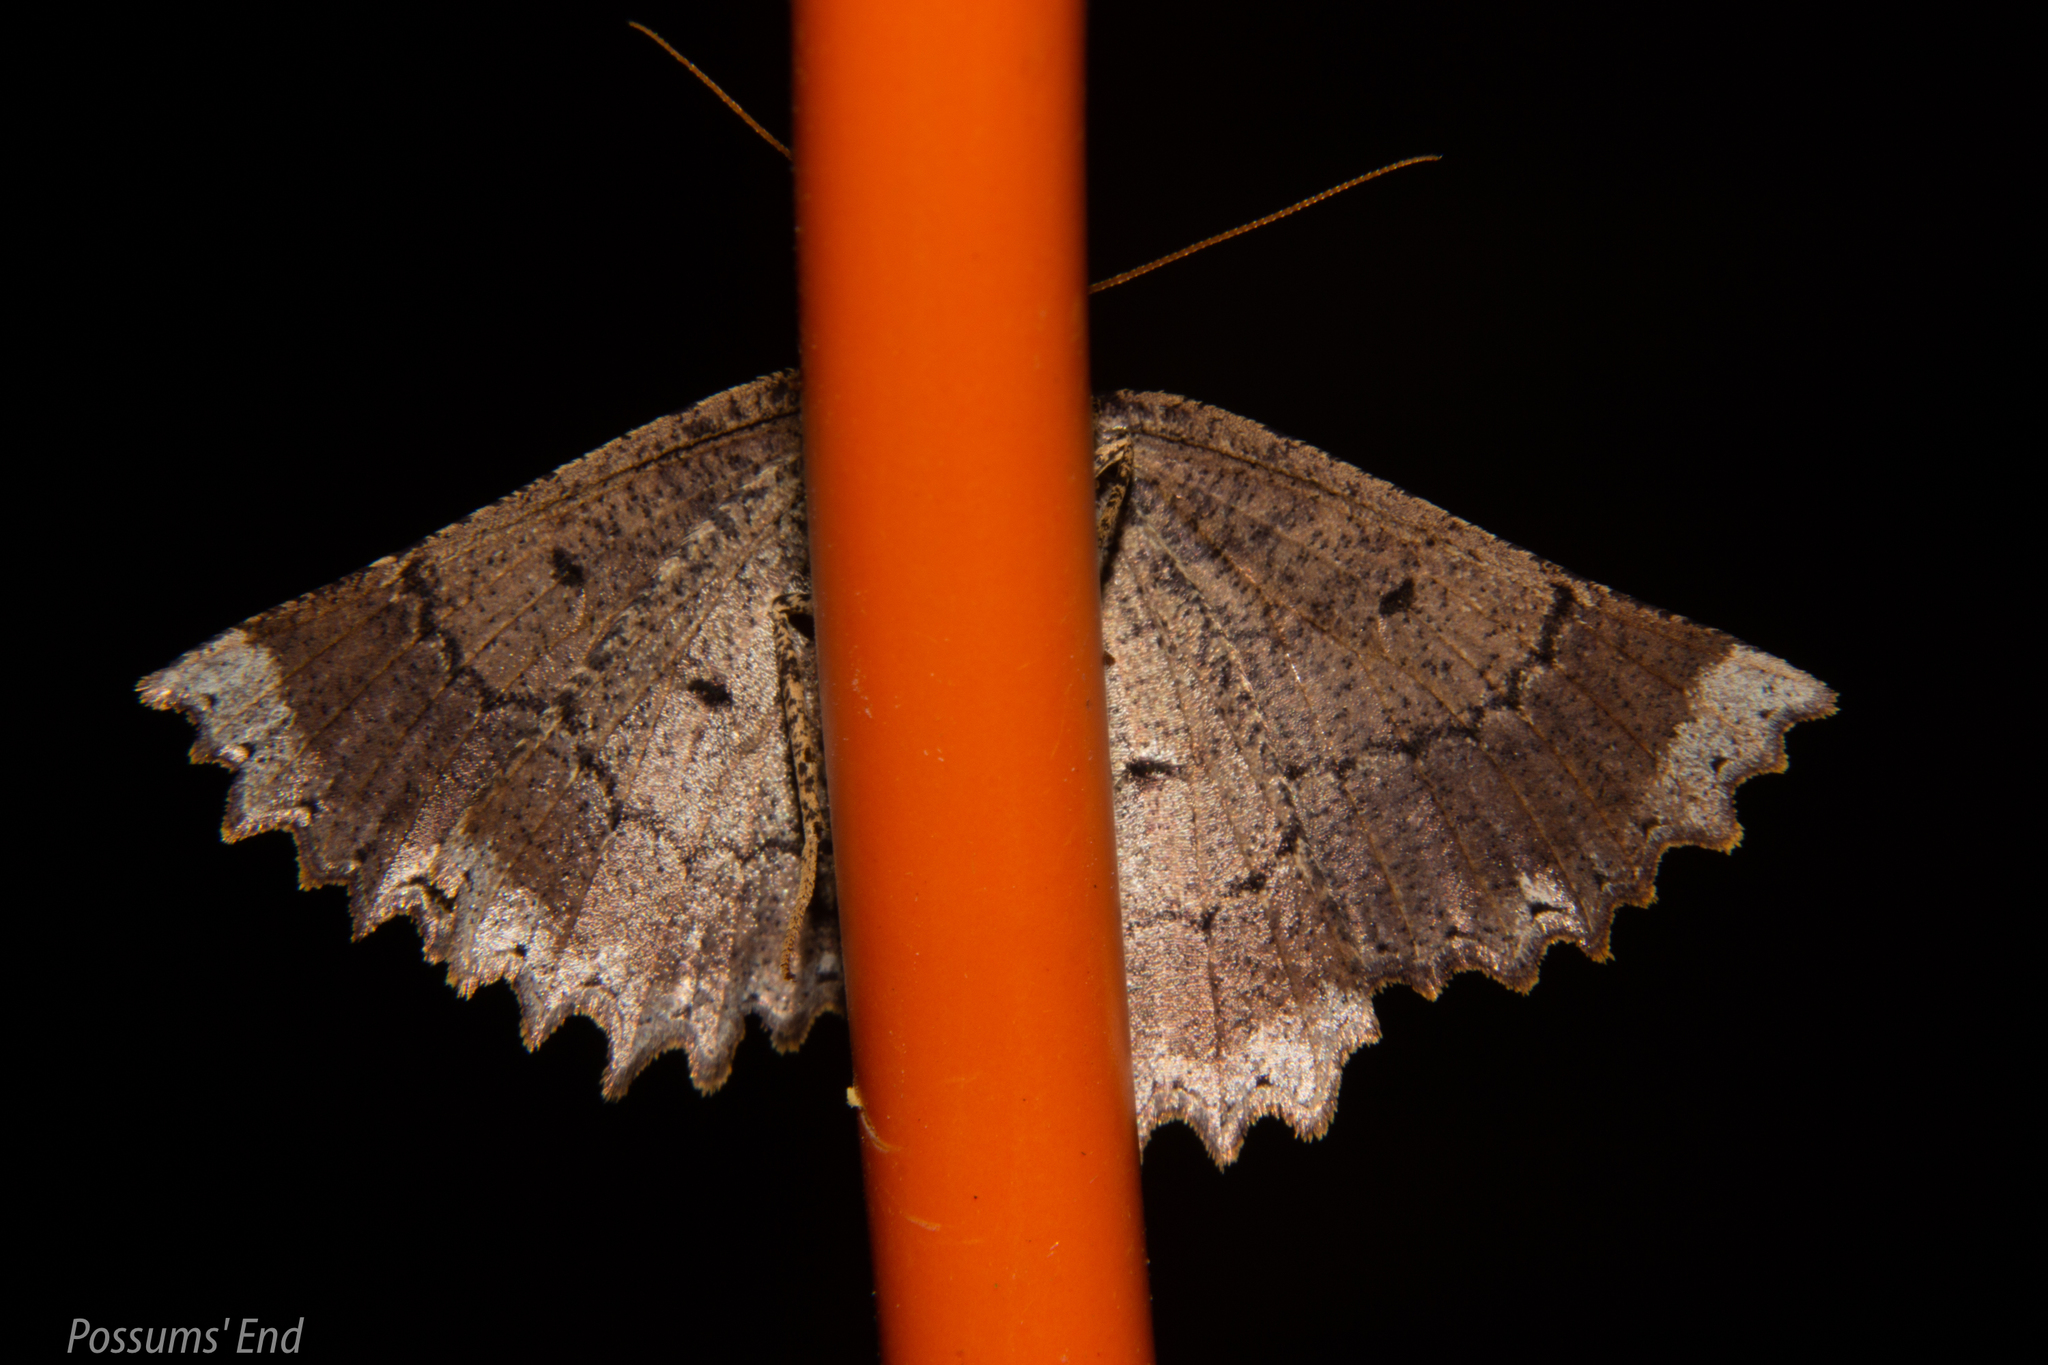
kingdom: Animalia
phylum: Arthropoda
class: Insecta
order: Lepidoptera
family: Geometridae
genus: Gellonia
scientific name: Gellonia pannularia
